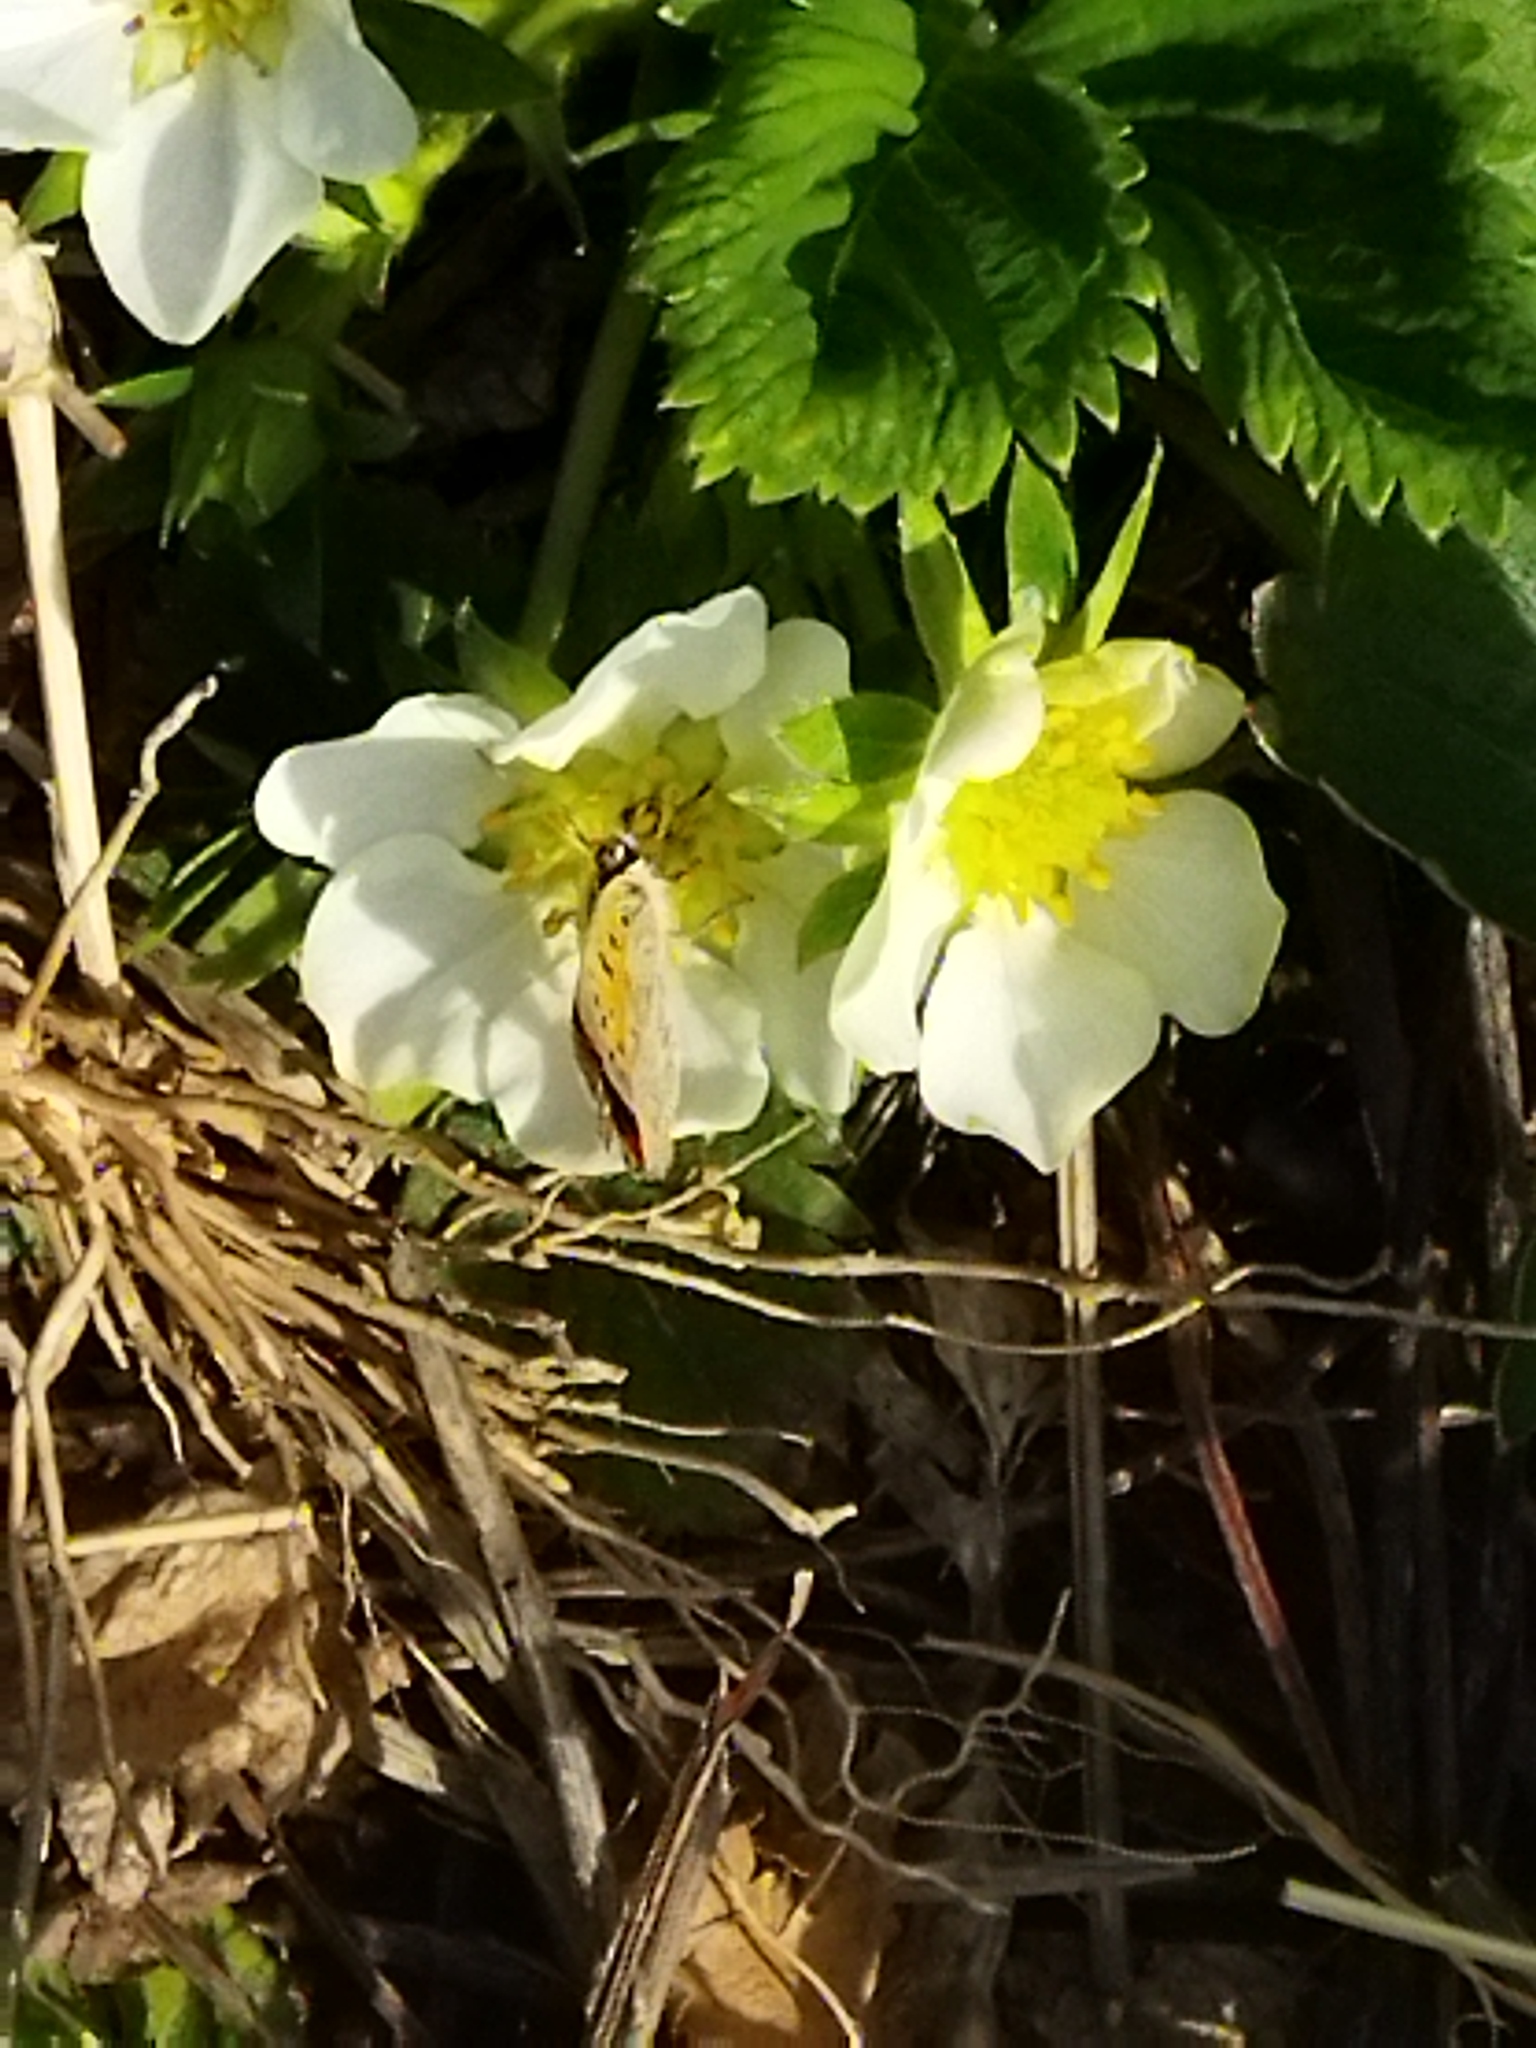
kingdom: Animalia
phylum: Arthropoda
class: Insecta
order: Lepidoptera
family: Lycaenidae
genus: Lycaena
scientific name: Lycaena phlaeas
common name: Small copper
